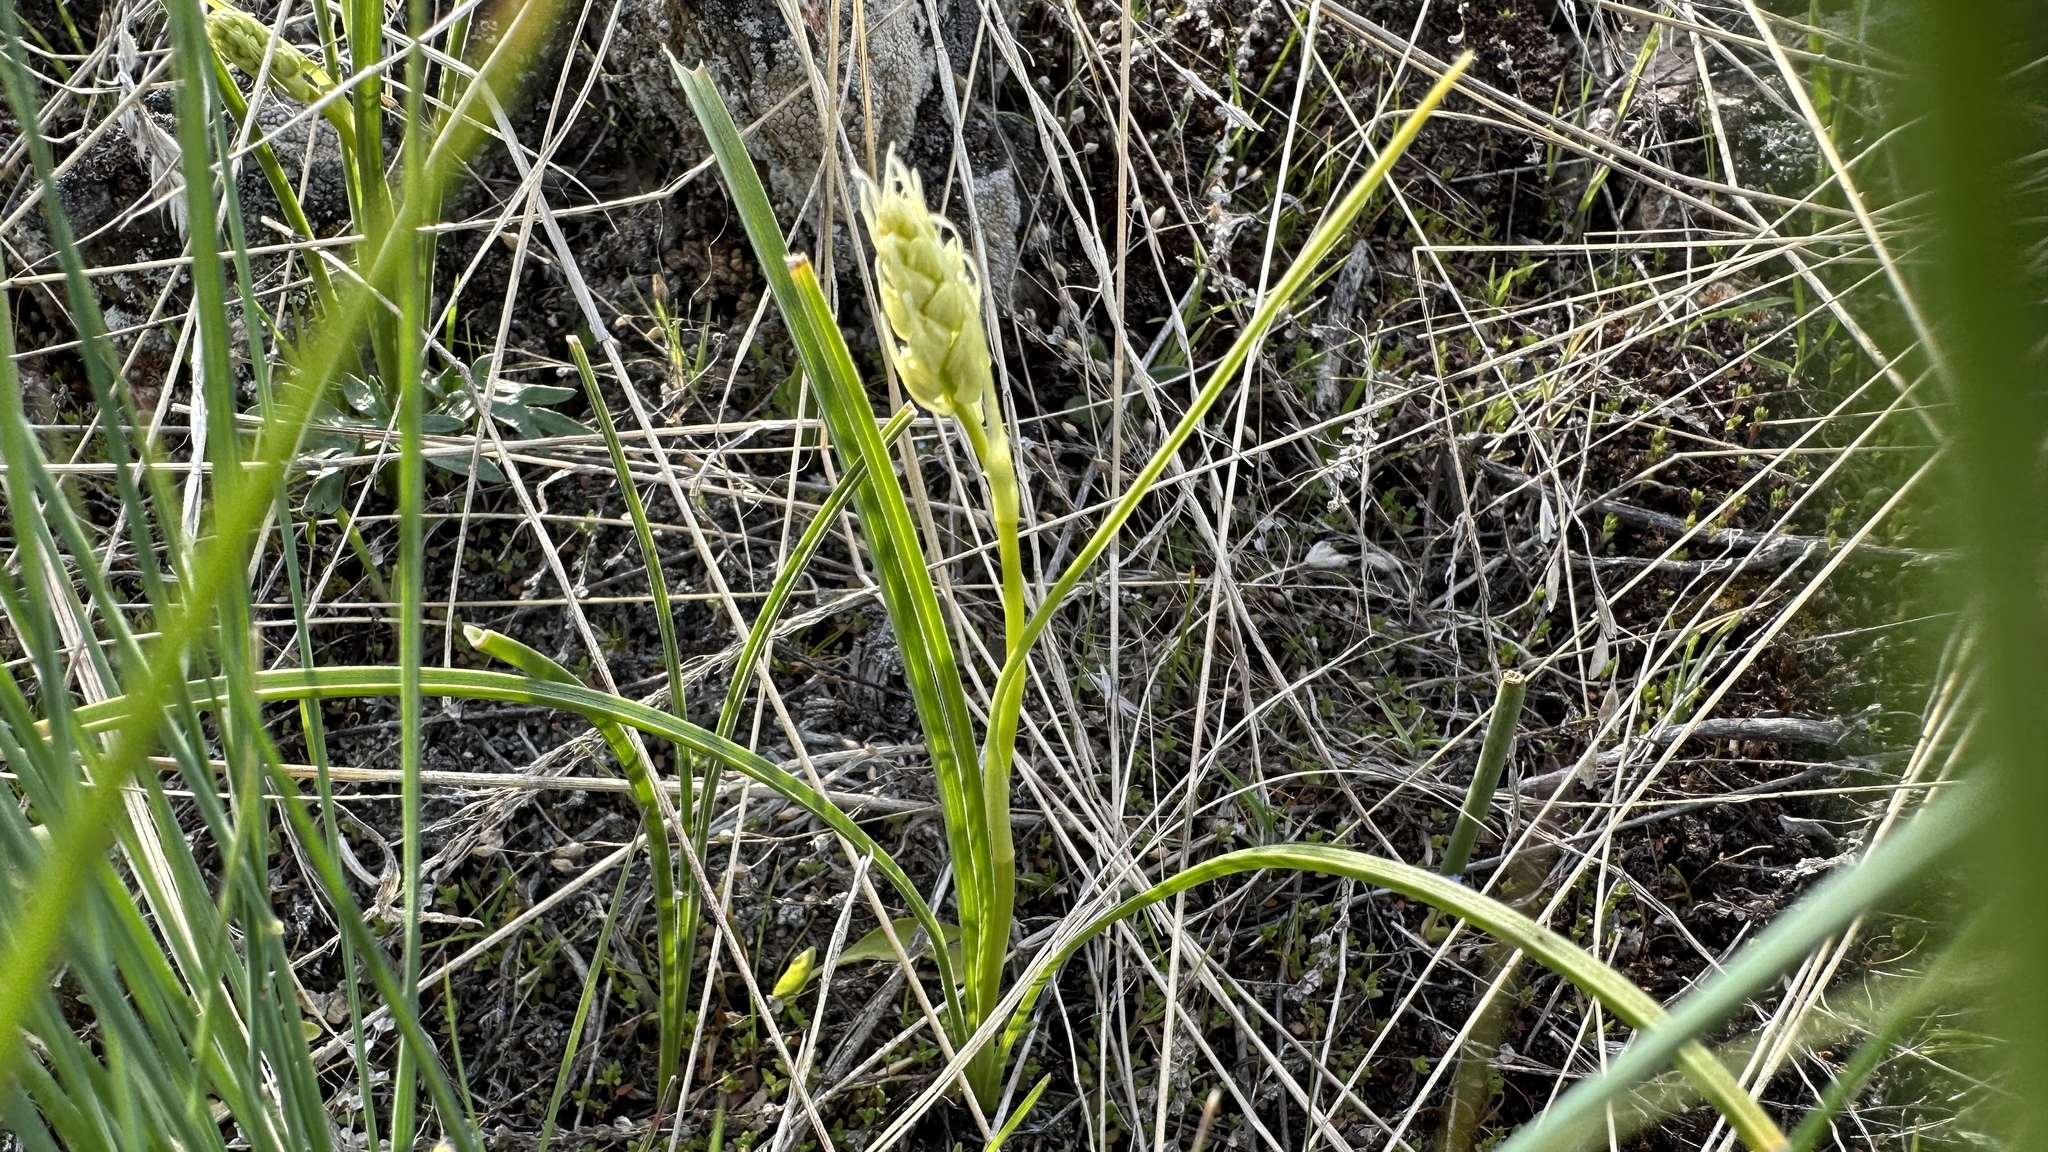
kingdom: Plantae
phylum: Tracheophyta
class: Liliopsida
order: Liliales
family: Melanthiaceae
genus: Toxicoscordion
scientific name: Toxicoscordion venenosum
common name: Meadow death camas
